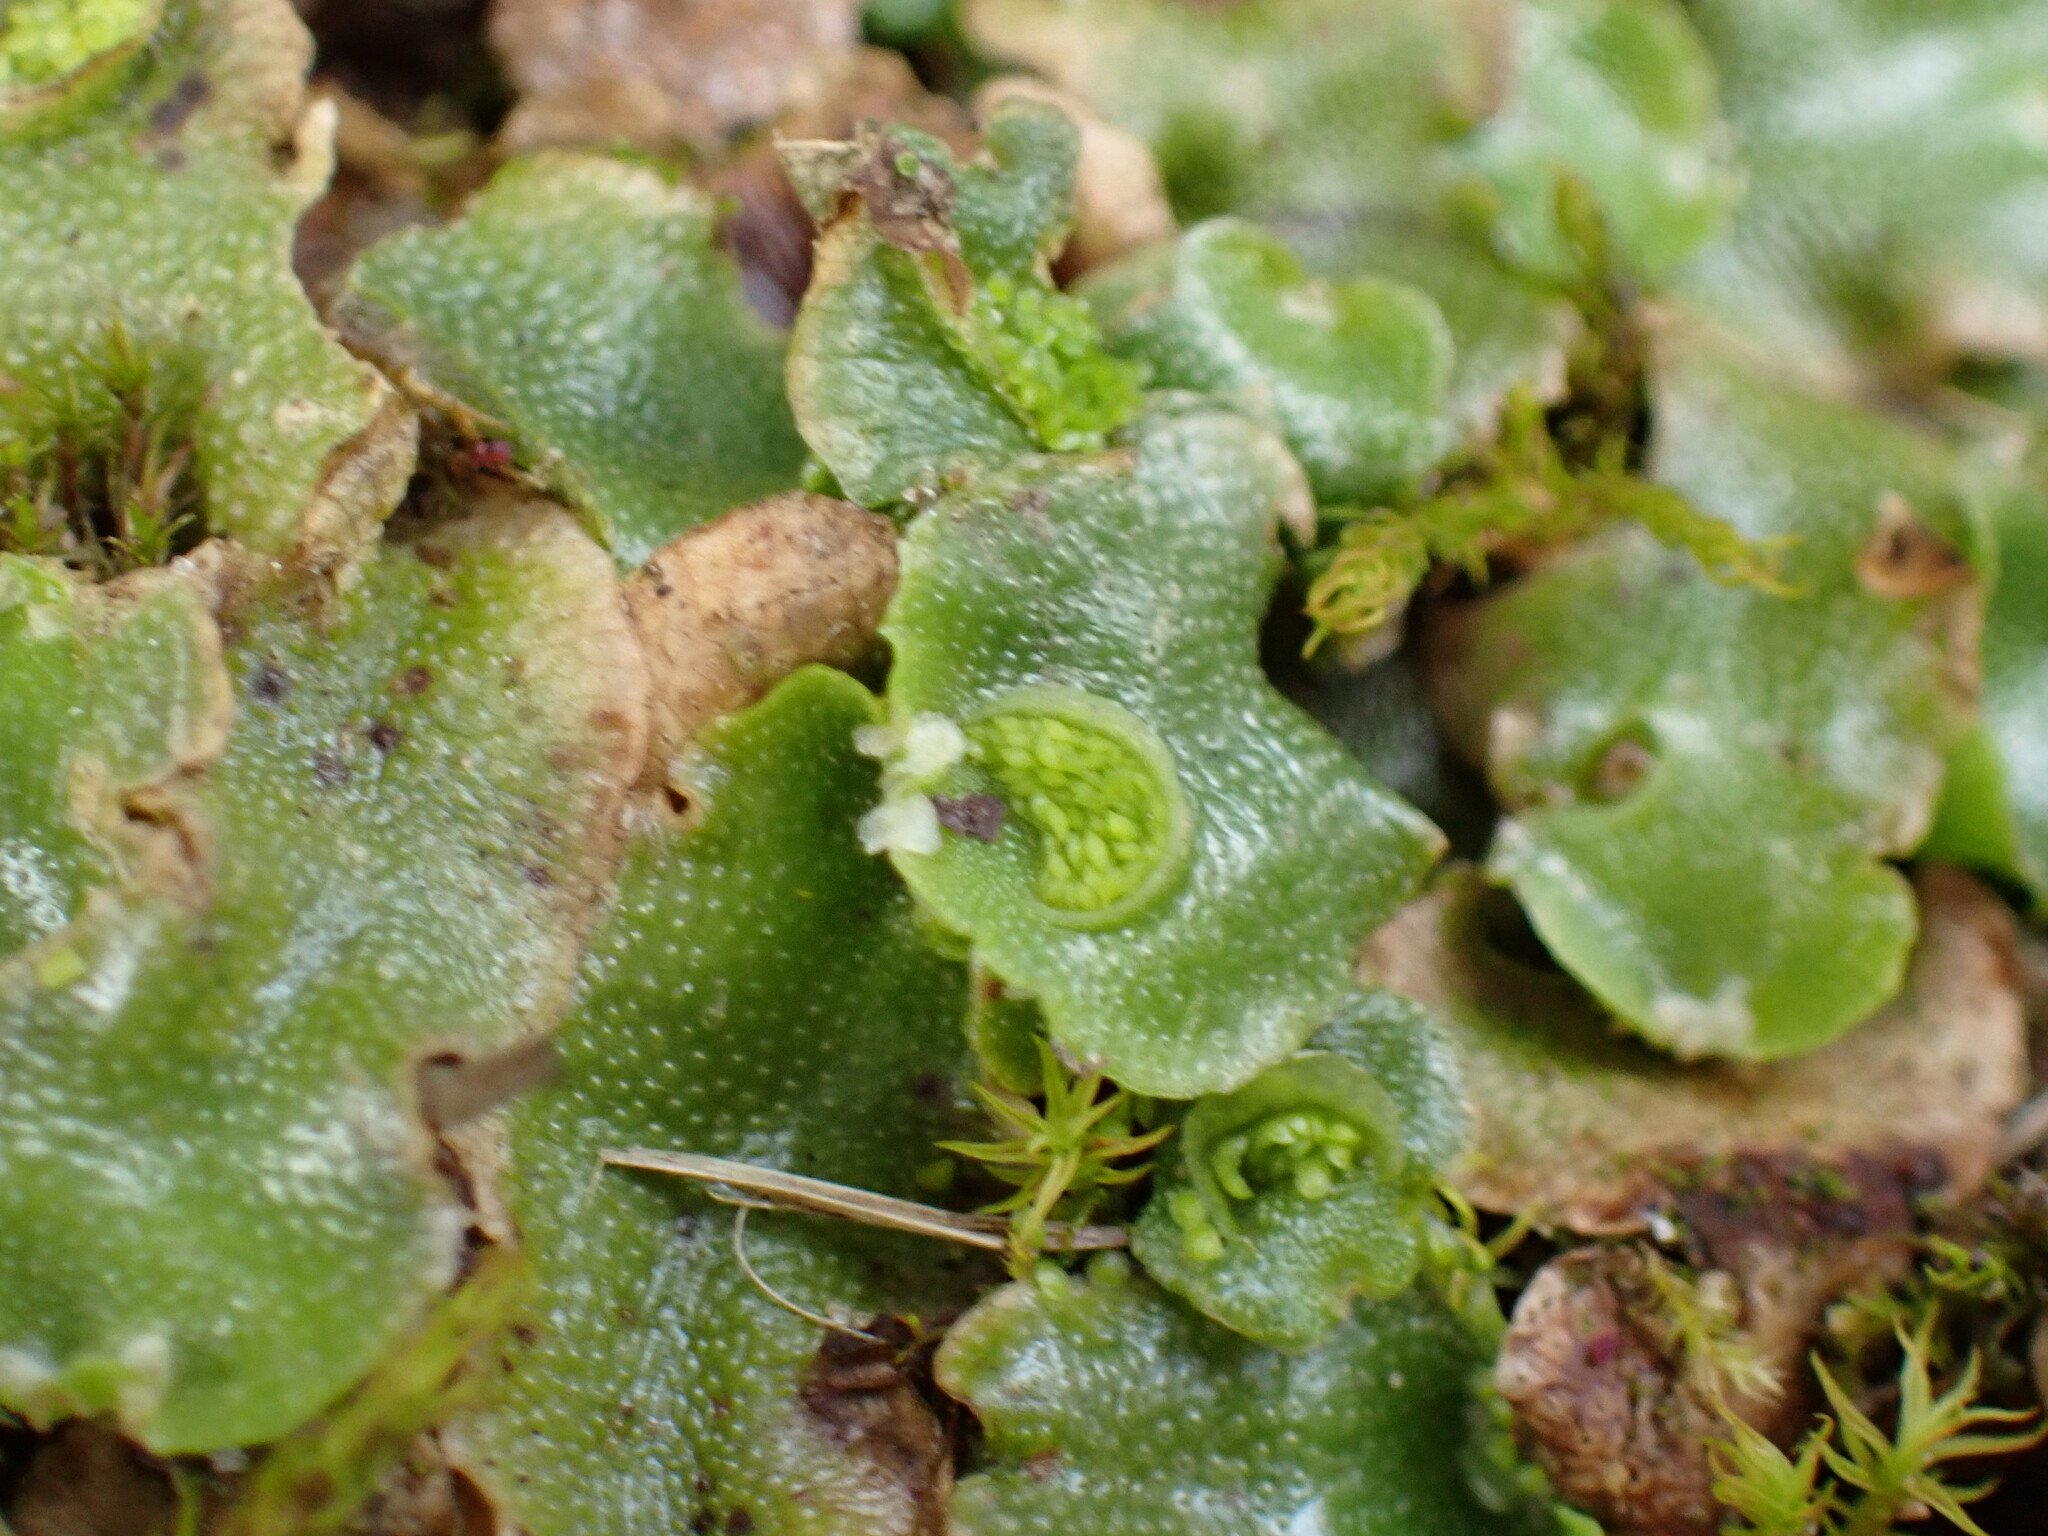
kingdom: Plantae
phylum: Marchantiophyta
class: Marchantiopsida
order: Lunulariales
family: Lunulariaceae
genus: Lunularia
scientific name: Lunularia cruciata
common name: Crescent-cup liverwort
